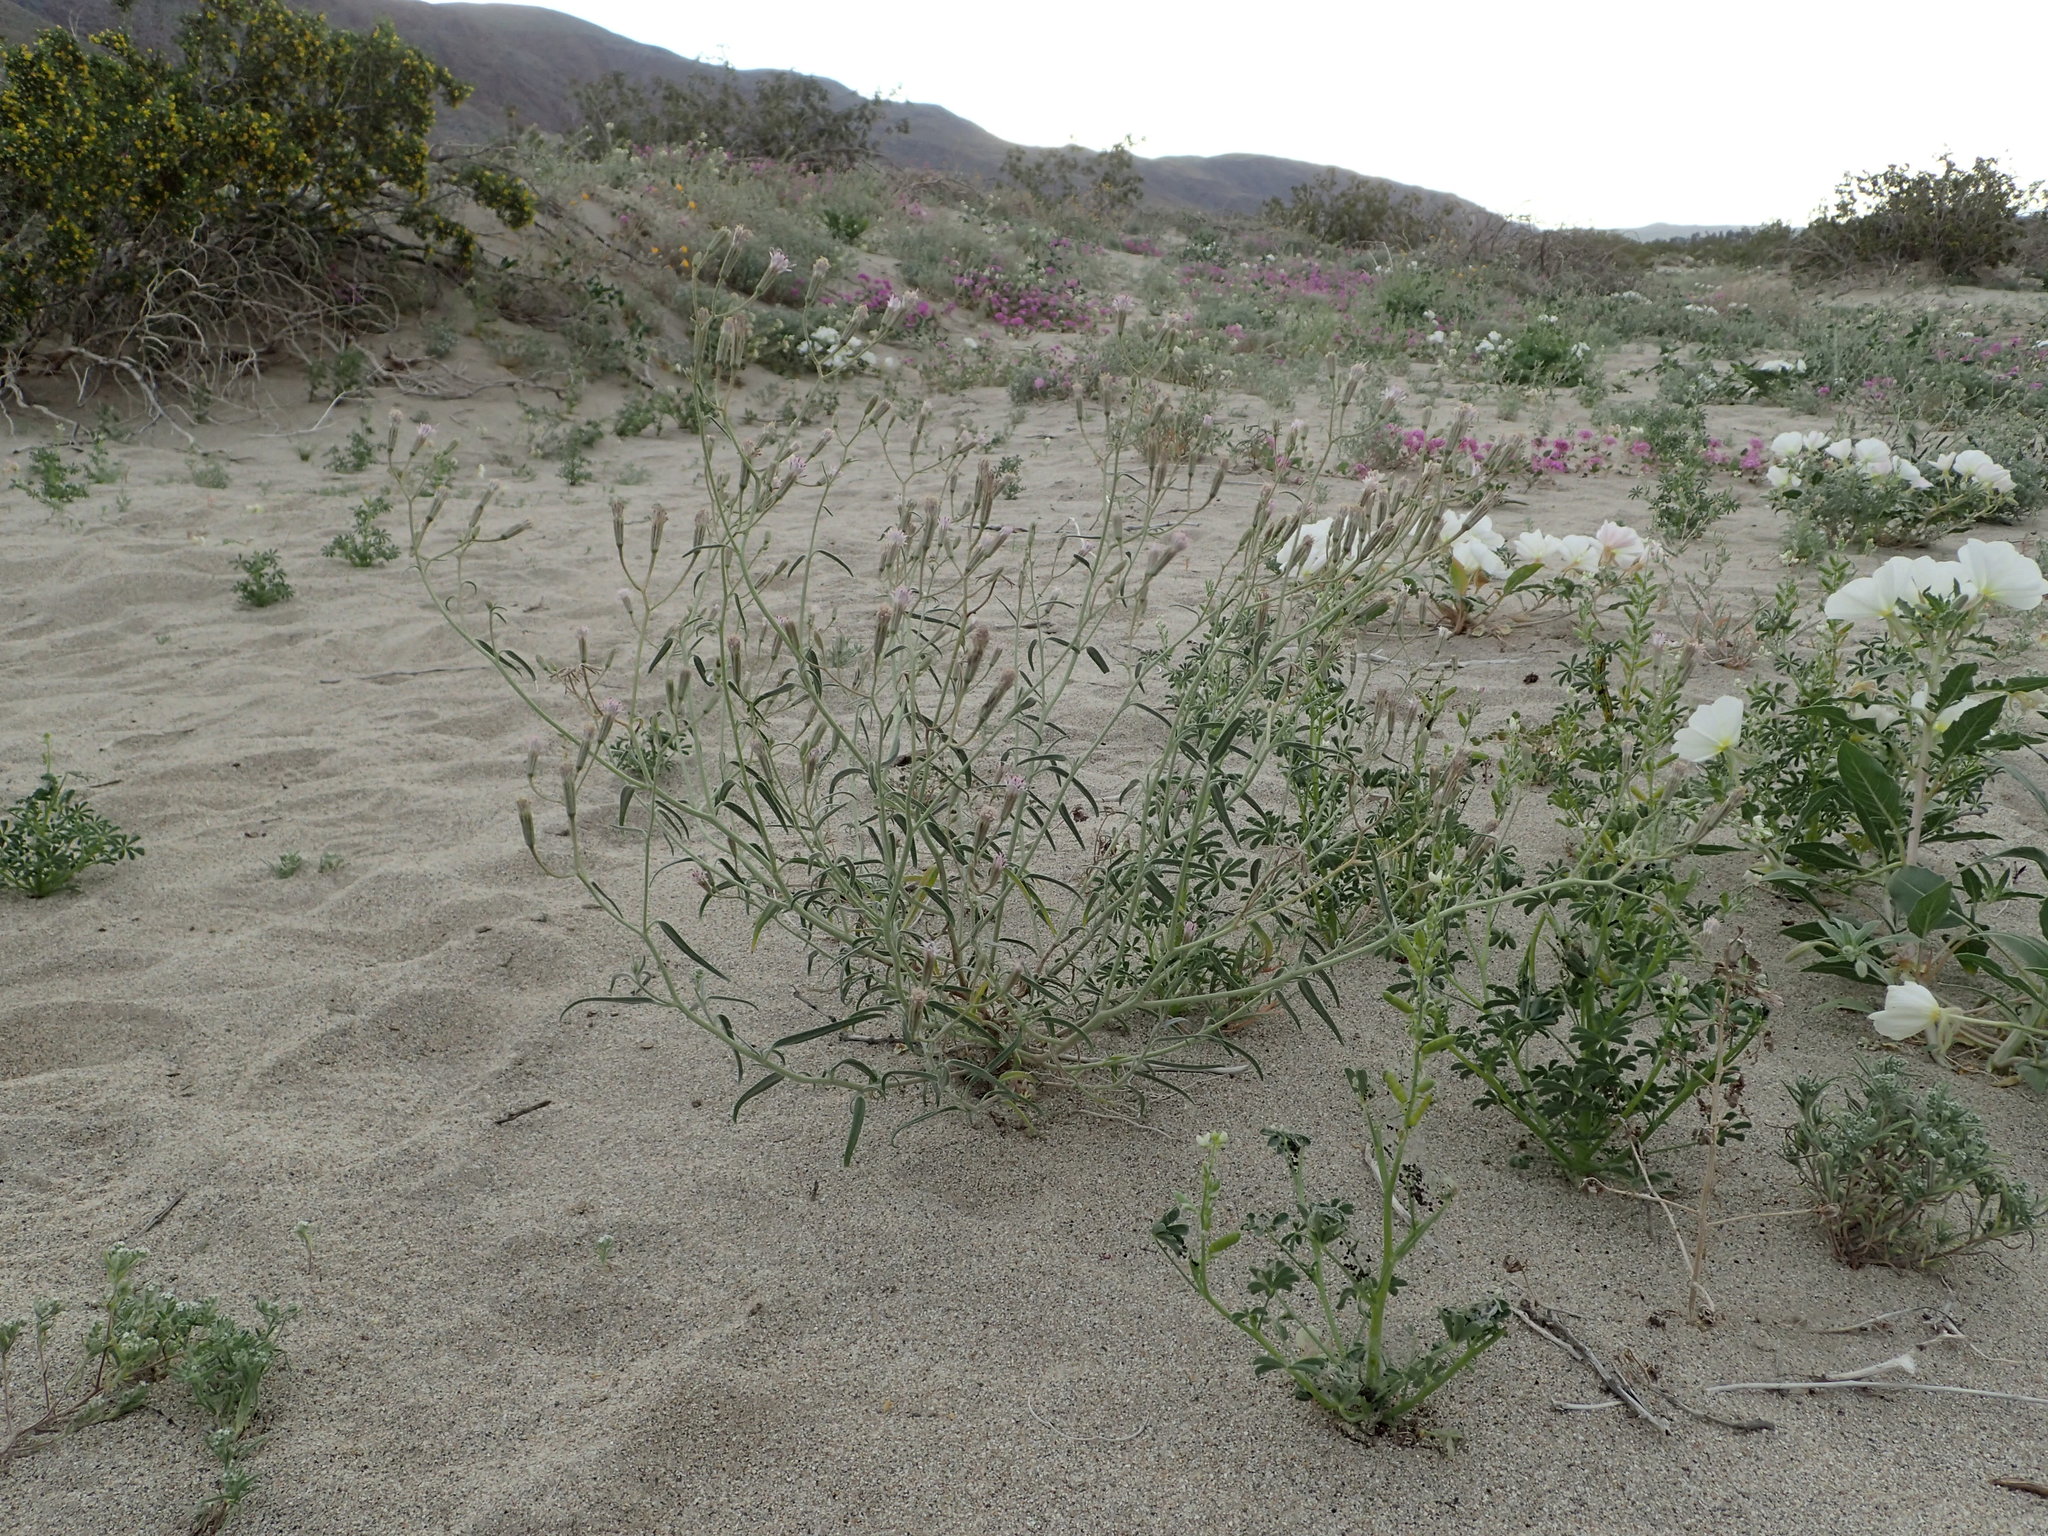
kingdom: Plantae
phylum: Tracheophyta
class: Magnoliopsida
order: Asterales
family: Asteraceae
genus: Palafoxia
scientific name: Palafoxia arida
